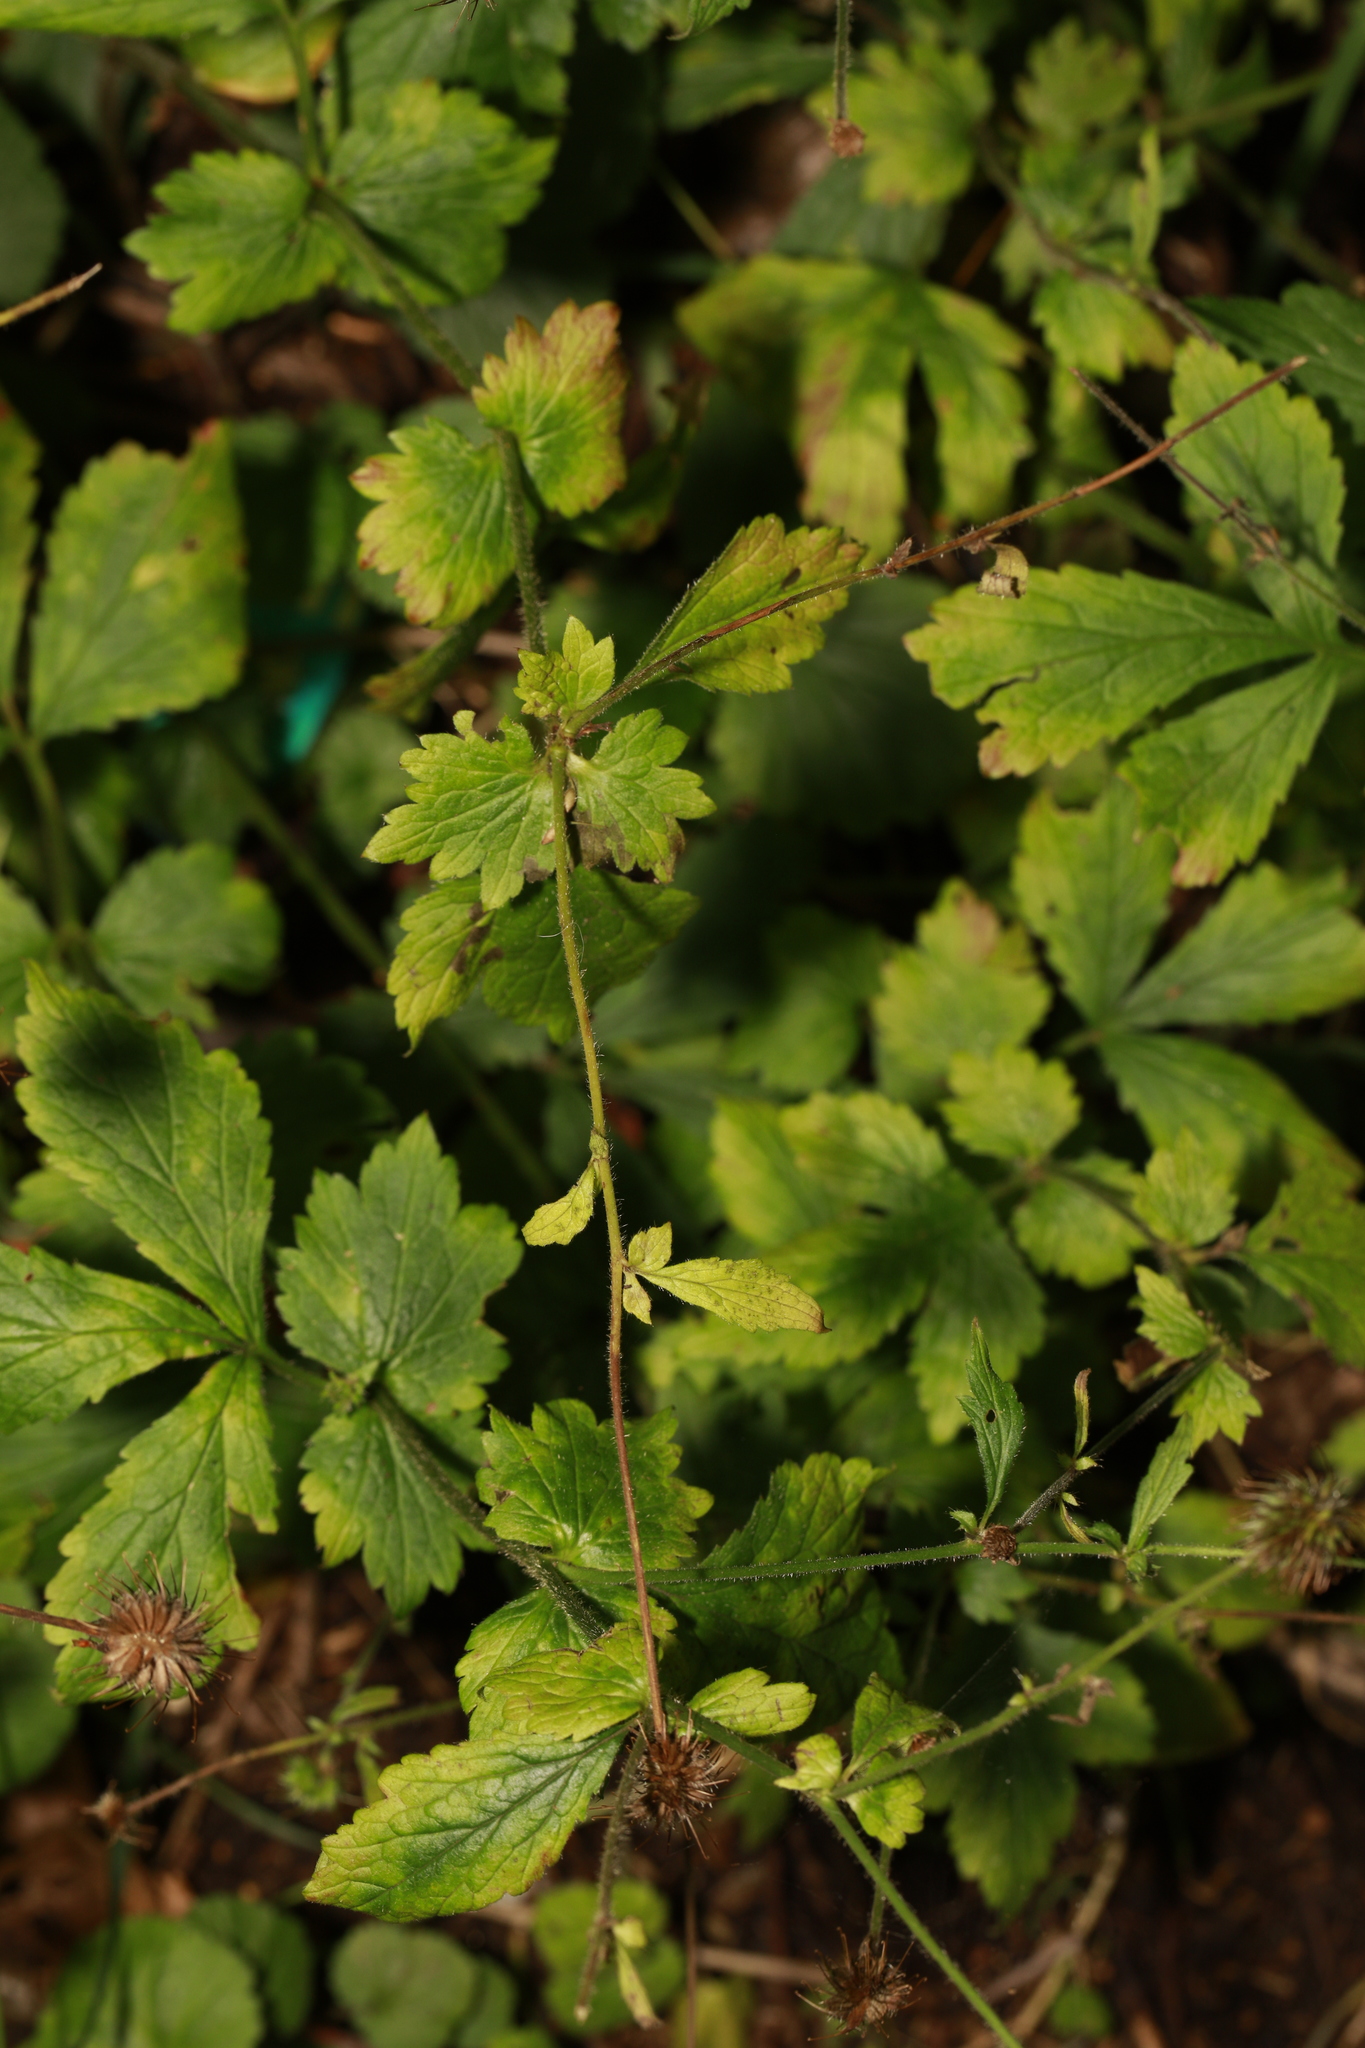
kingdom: Plantae
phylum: Tracheophyta
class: Magnoliopsida
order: Rosales
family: Rosaceae
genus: Geum
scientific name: Geum urbanum
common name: Wood avens
